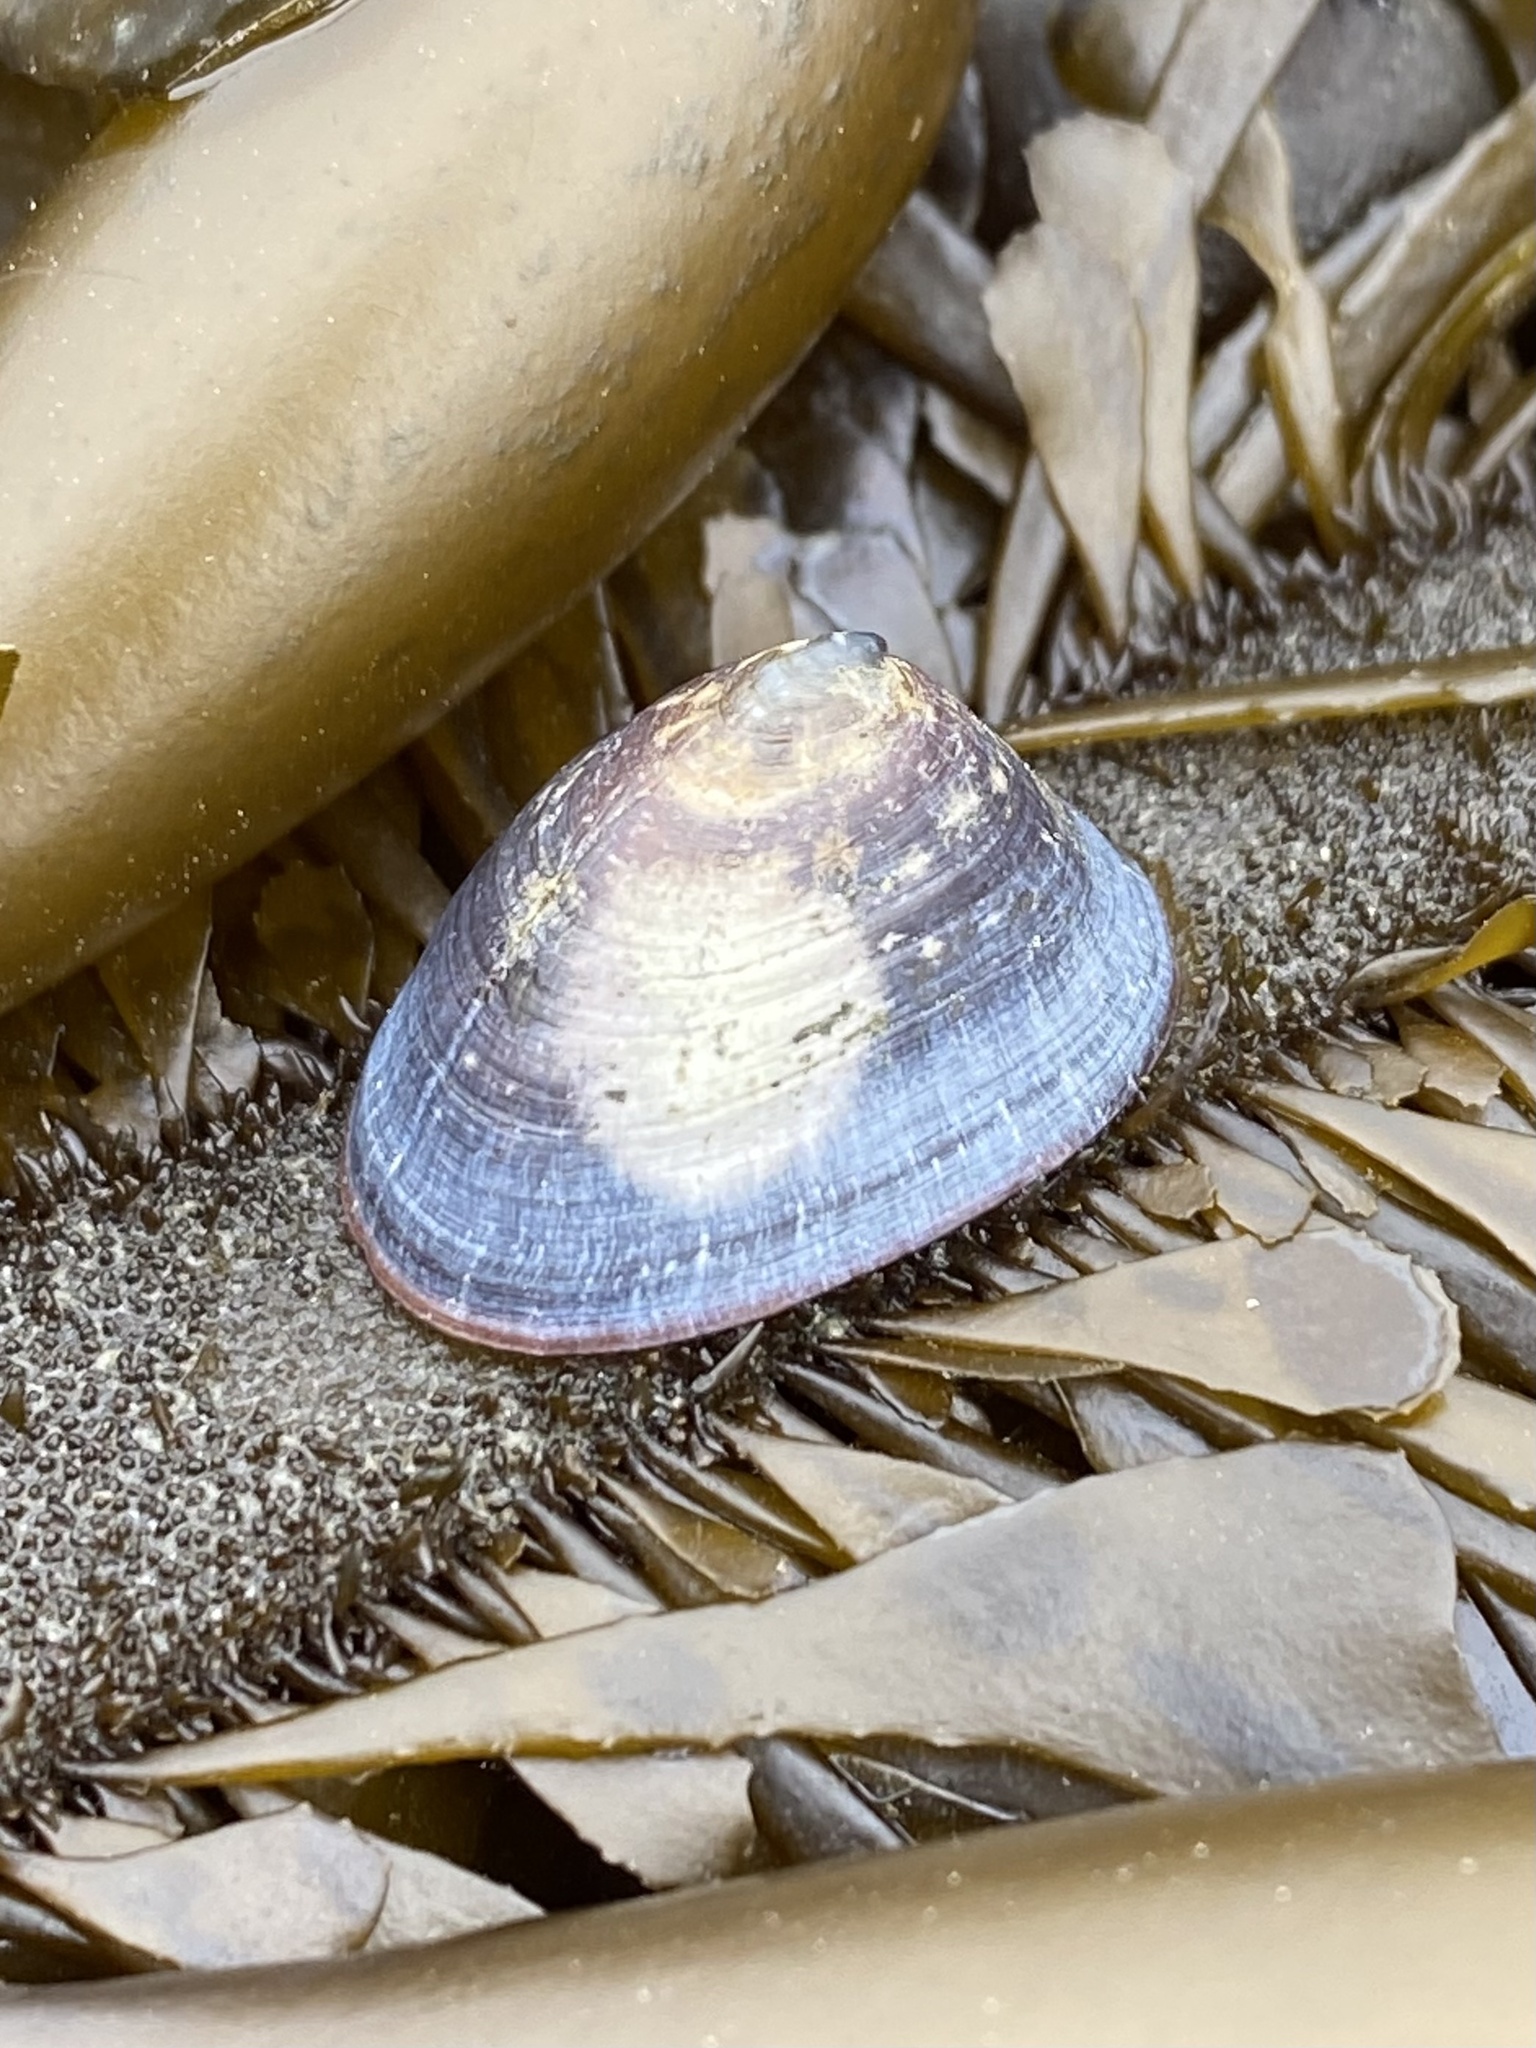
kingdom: Animalia
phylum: Mollusca
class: Gastropoda
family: Lottiidae
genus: Discurria
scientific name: Discurria insessa
